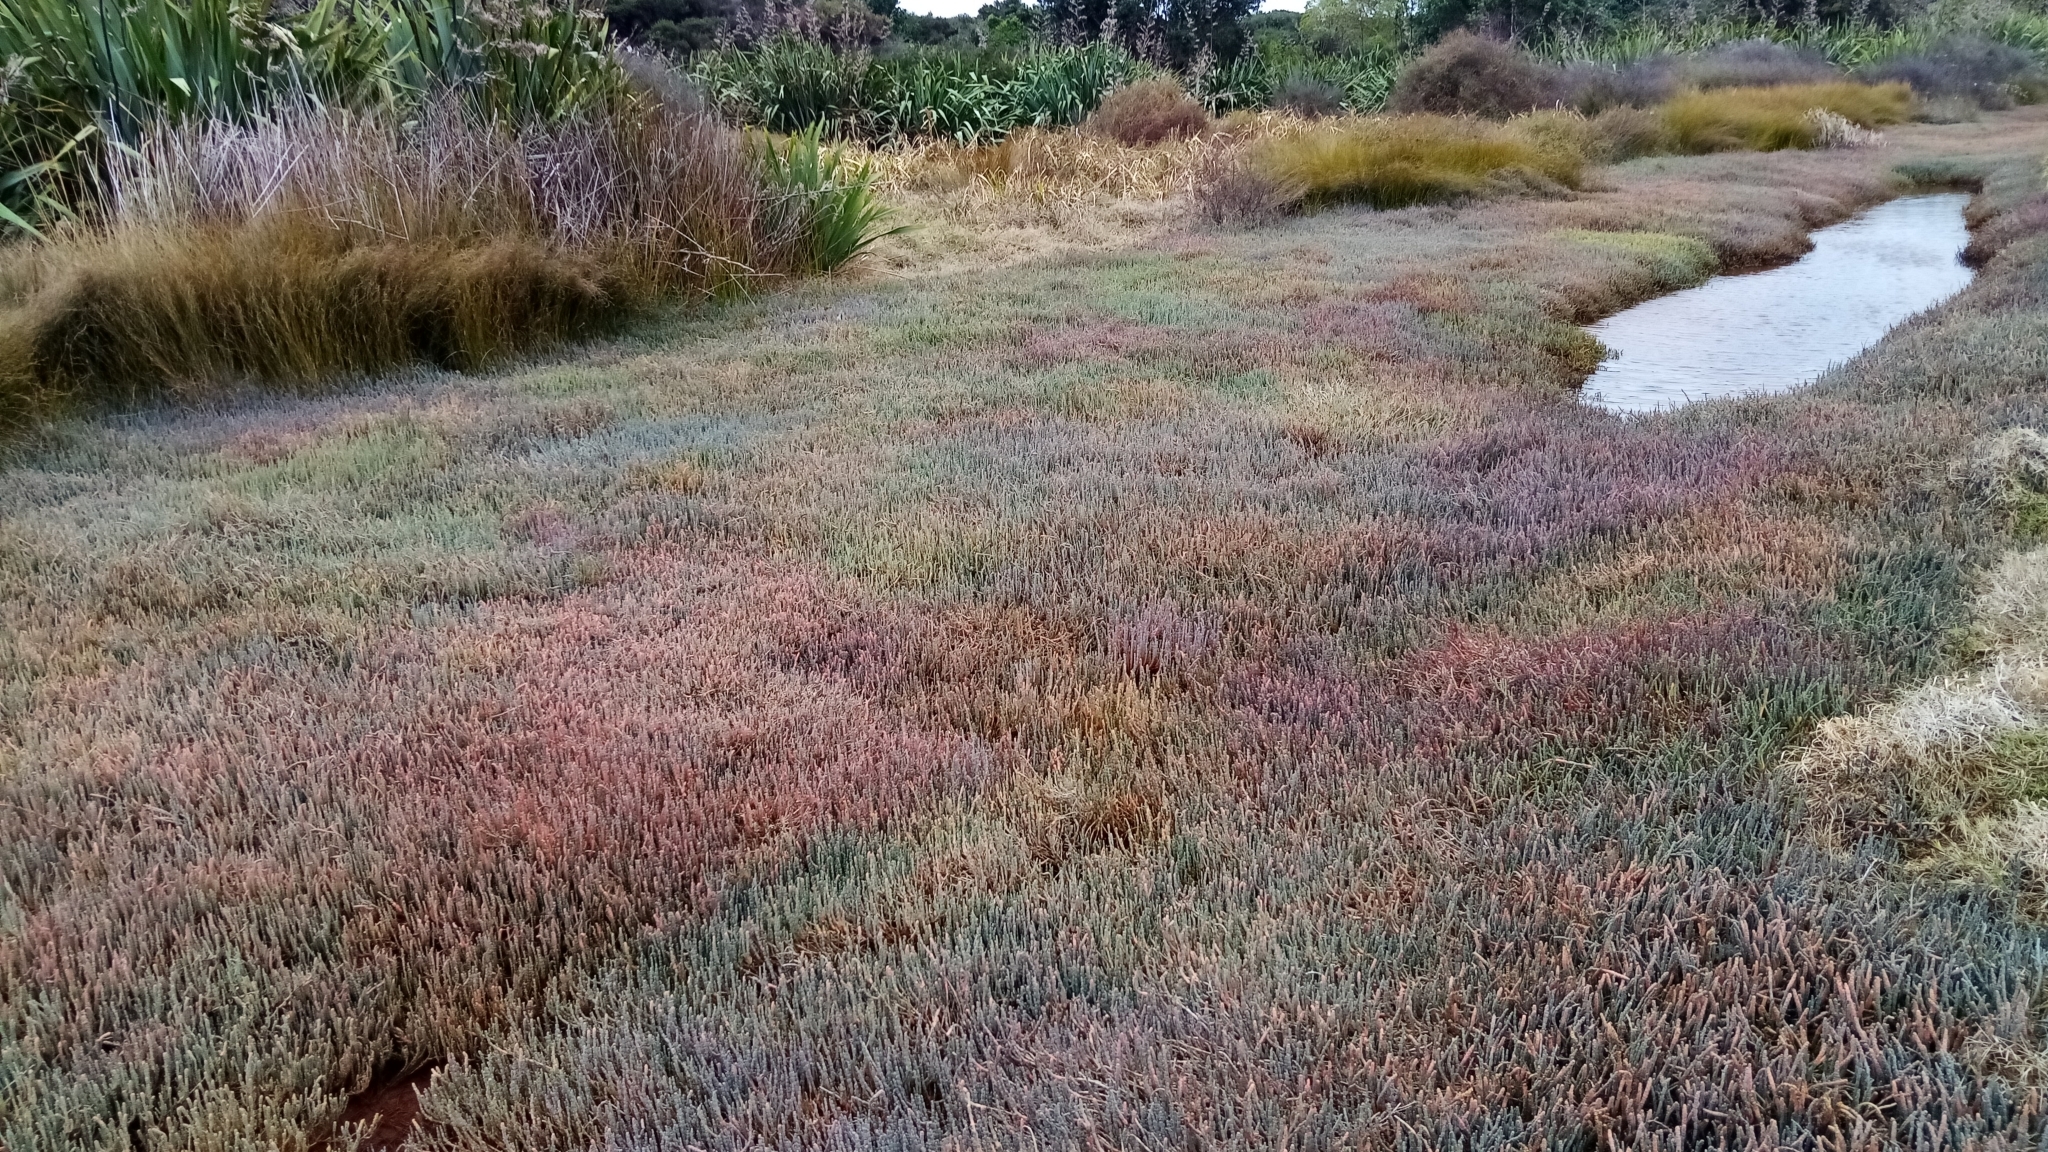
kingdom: Plantae
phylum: Tracheophyta
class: Magnoliopsida
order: Caryophyllales
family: Amaranthaceae
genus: Salicornia
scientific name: Salicornia quinqueflora
